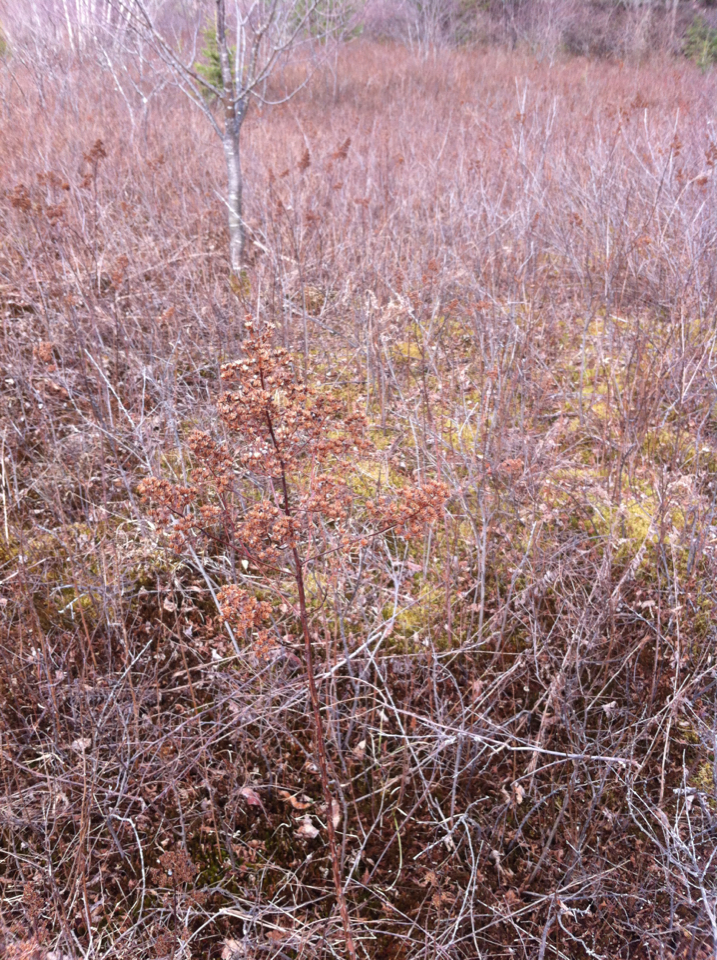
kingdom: Plantae
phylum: Tracheophyta
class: Magnoliopsida
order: Rosales
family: Rosaceae
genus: Spiraea
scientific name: Spiraea alba
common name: Pale bridewort
